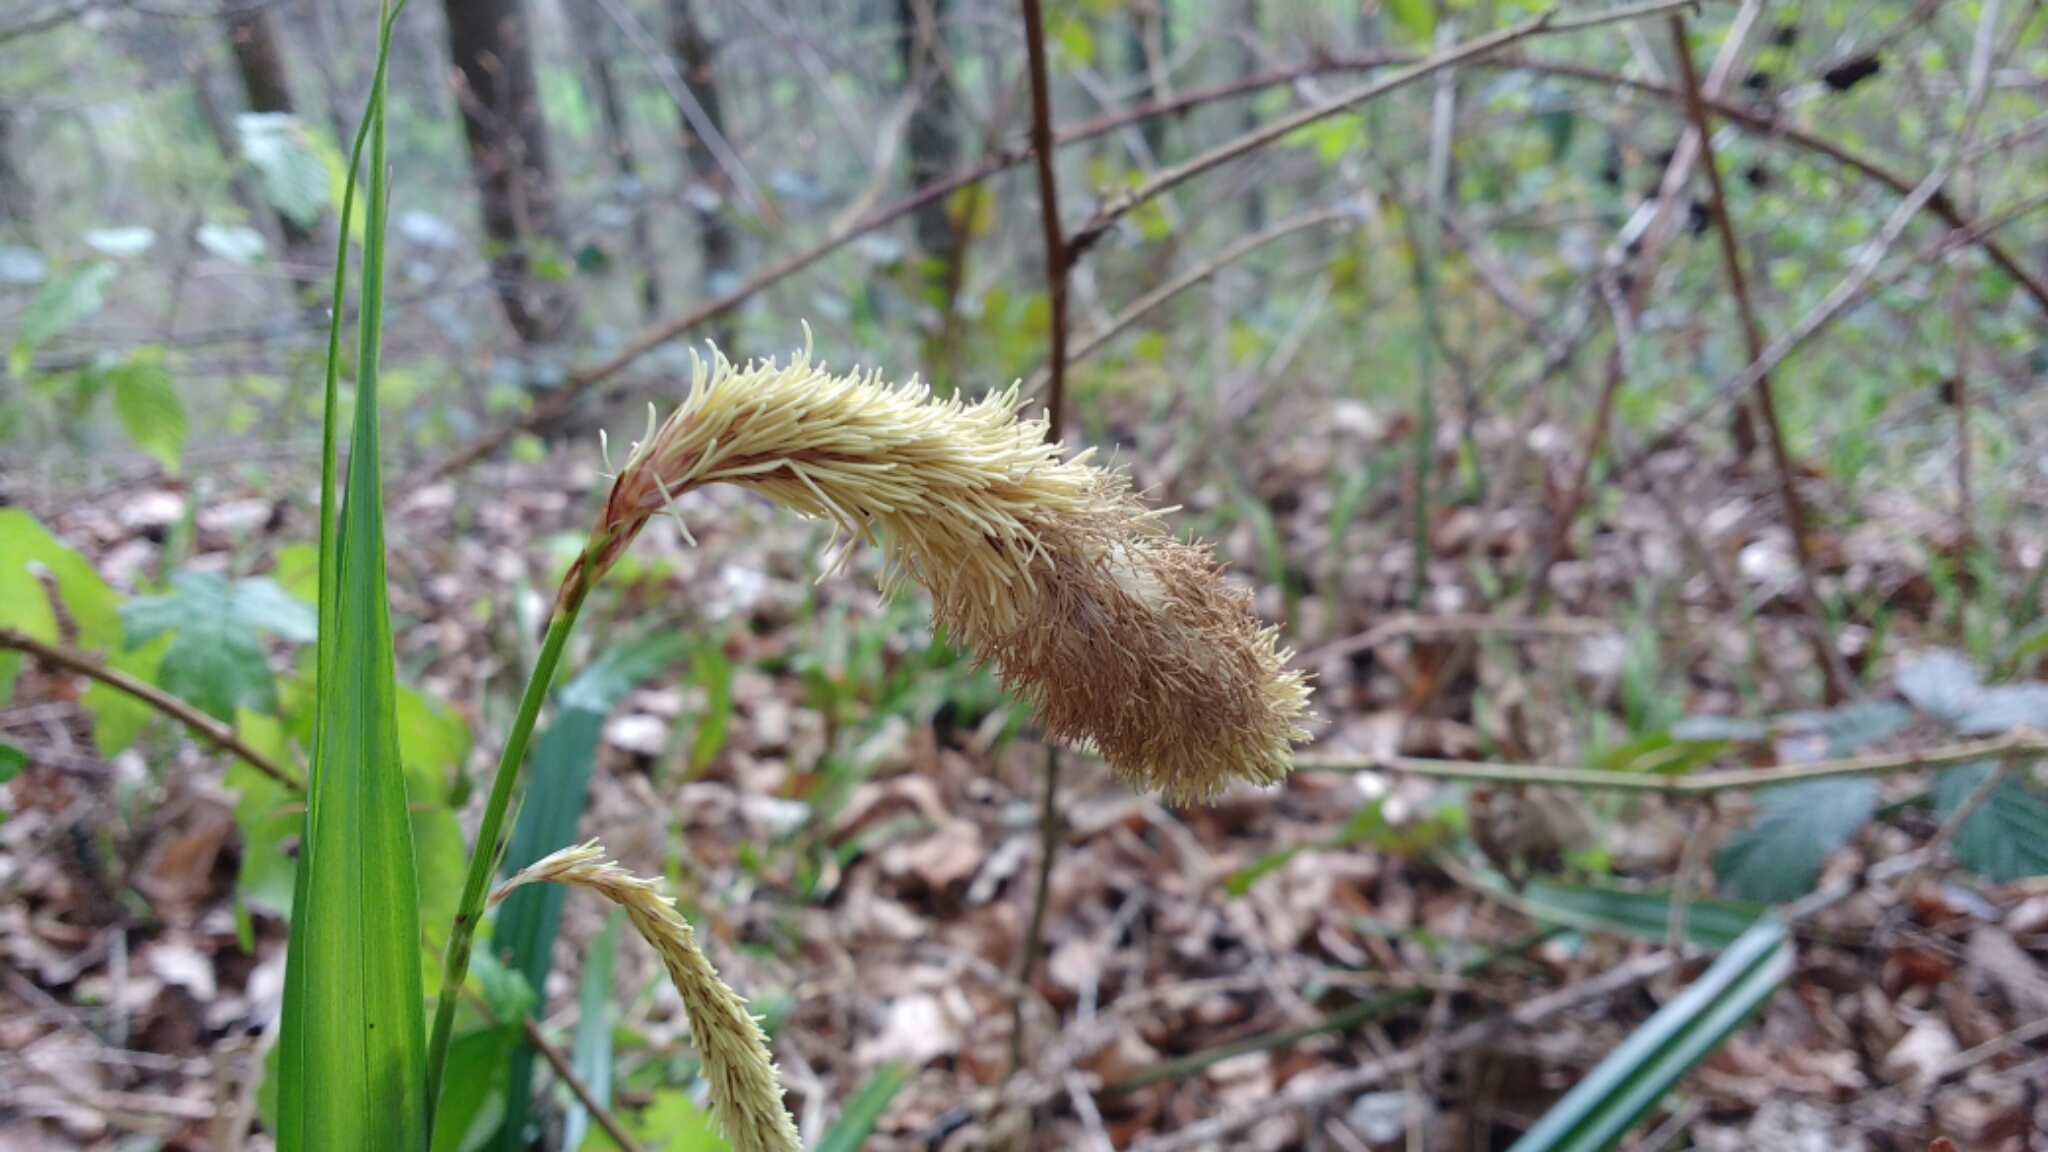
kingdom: Plantae
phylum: Tracheophyta
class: Liliopsida
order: Poales
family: Cyperaceae
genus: Carex
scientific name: Carex pendula
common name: Pendulous sedge
